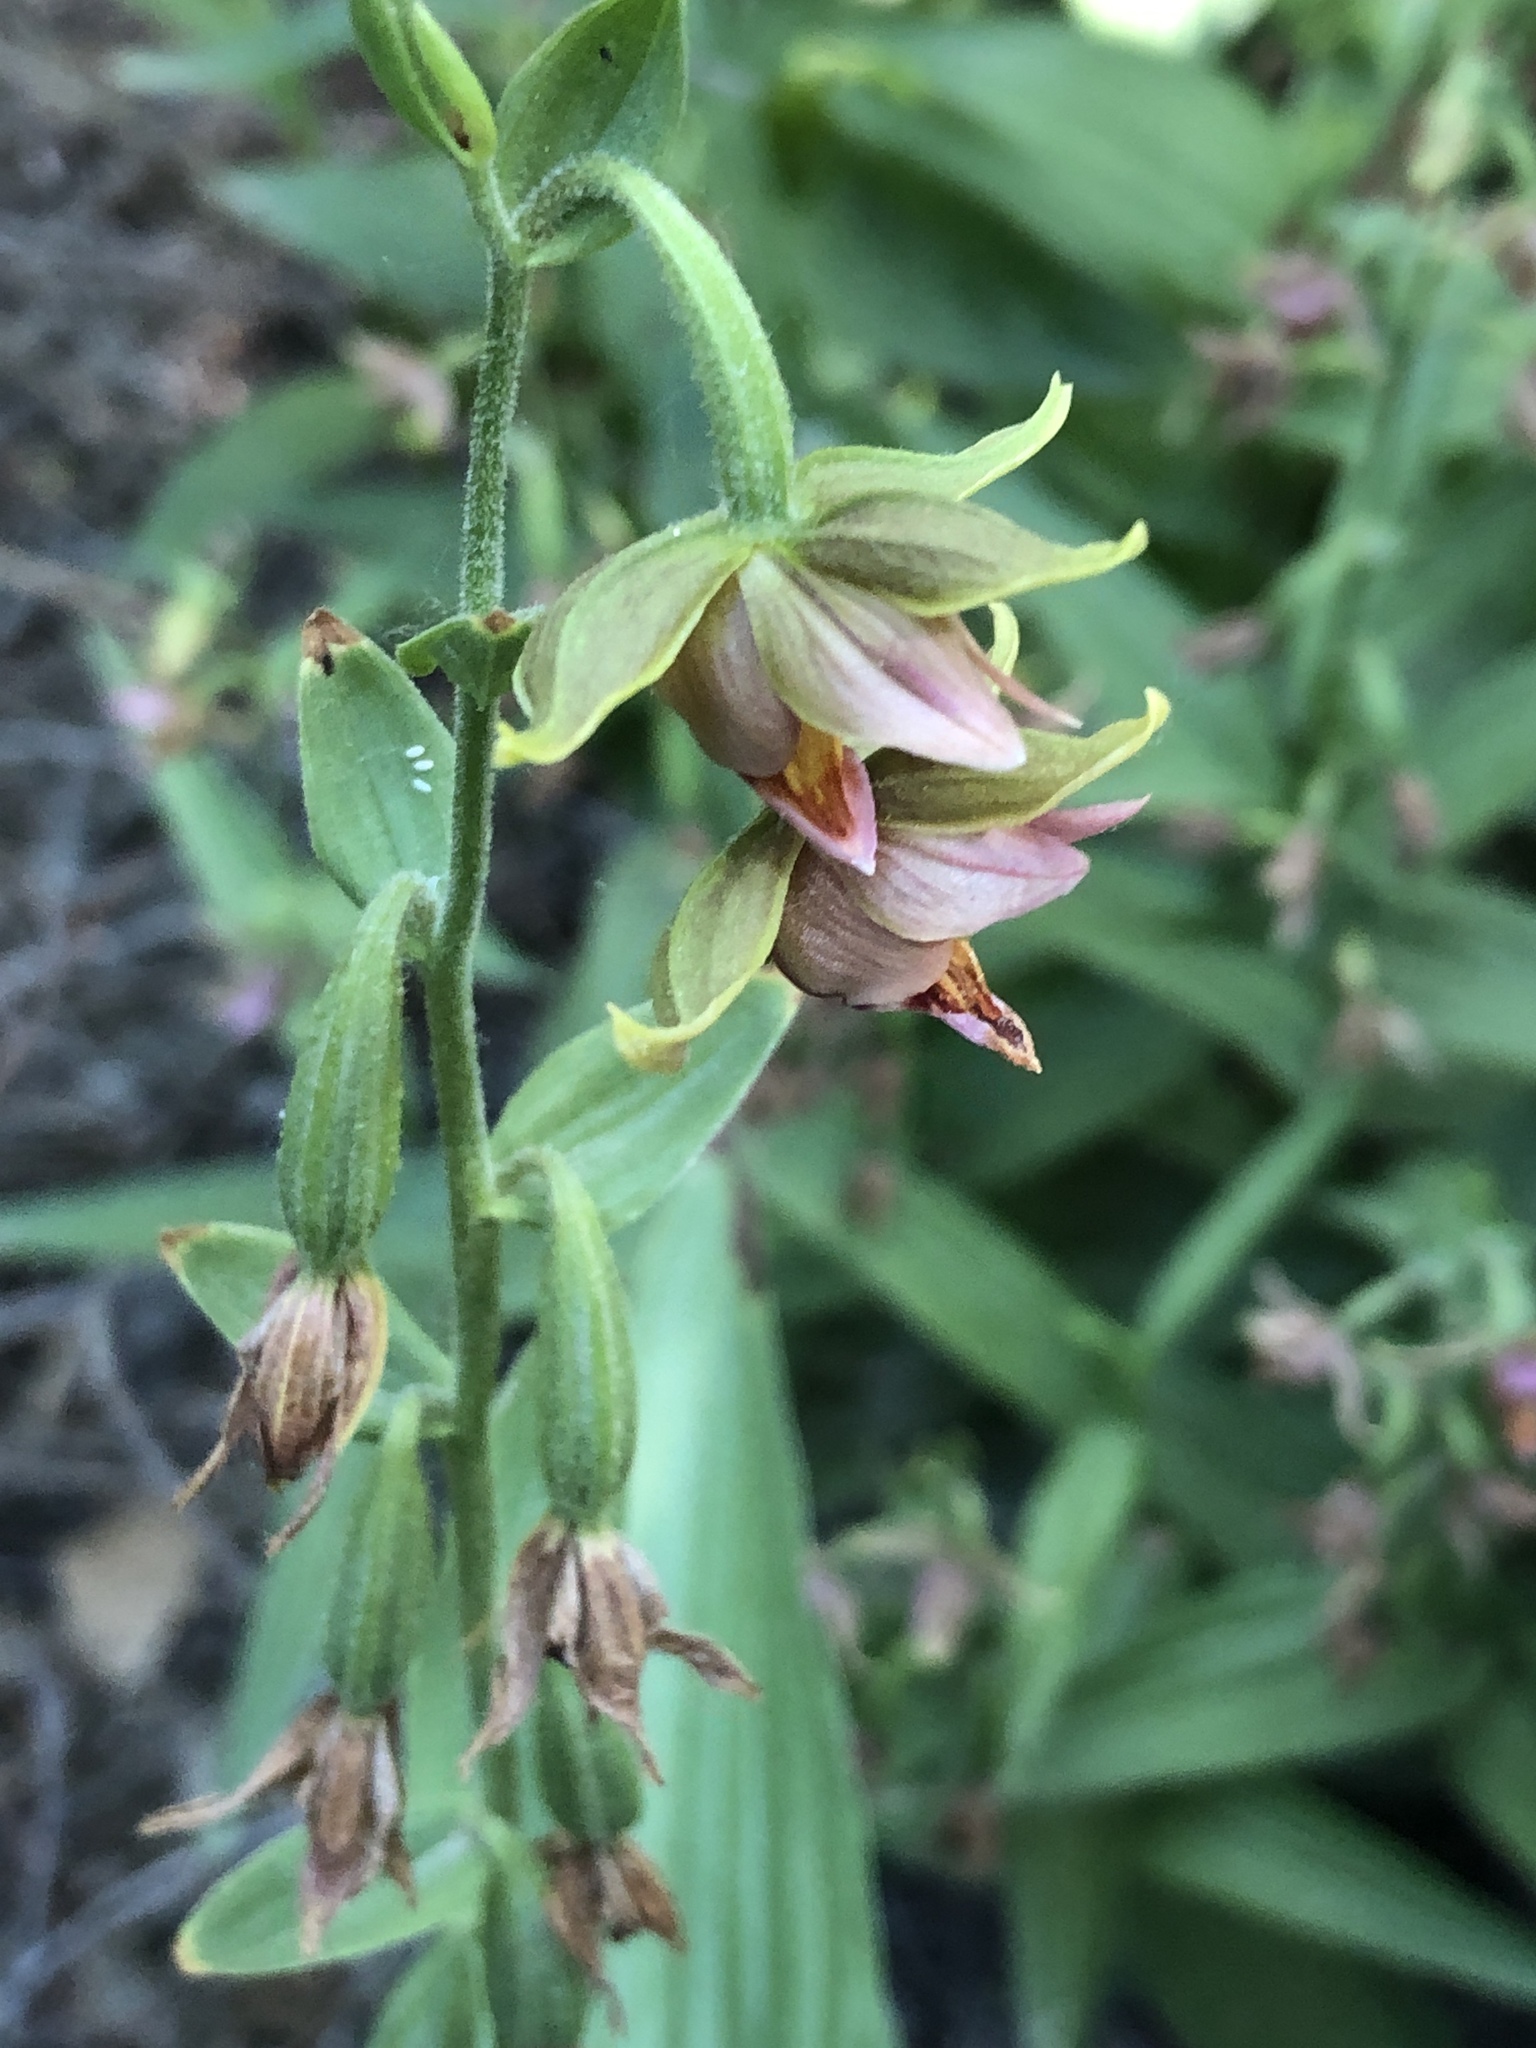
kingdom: Plantae
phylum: Tracheophyta
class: Liliopsida
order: Asparagales
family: Orchidaceae
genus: Epipactis
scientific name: Epipactis gigantea
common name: Chatterbox
